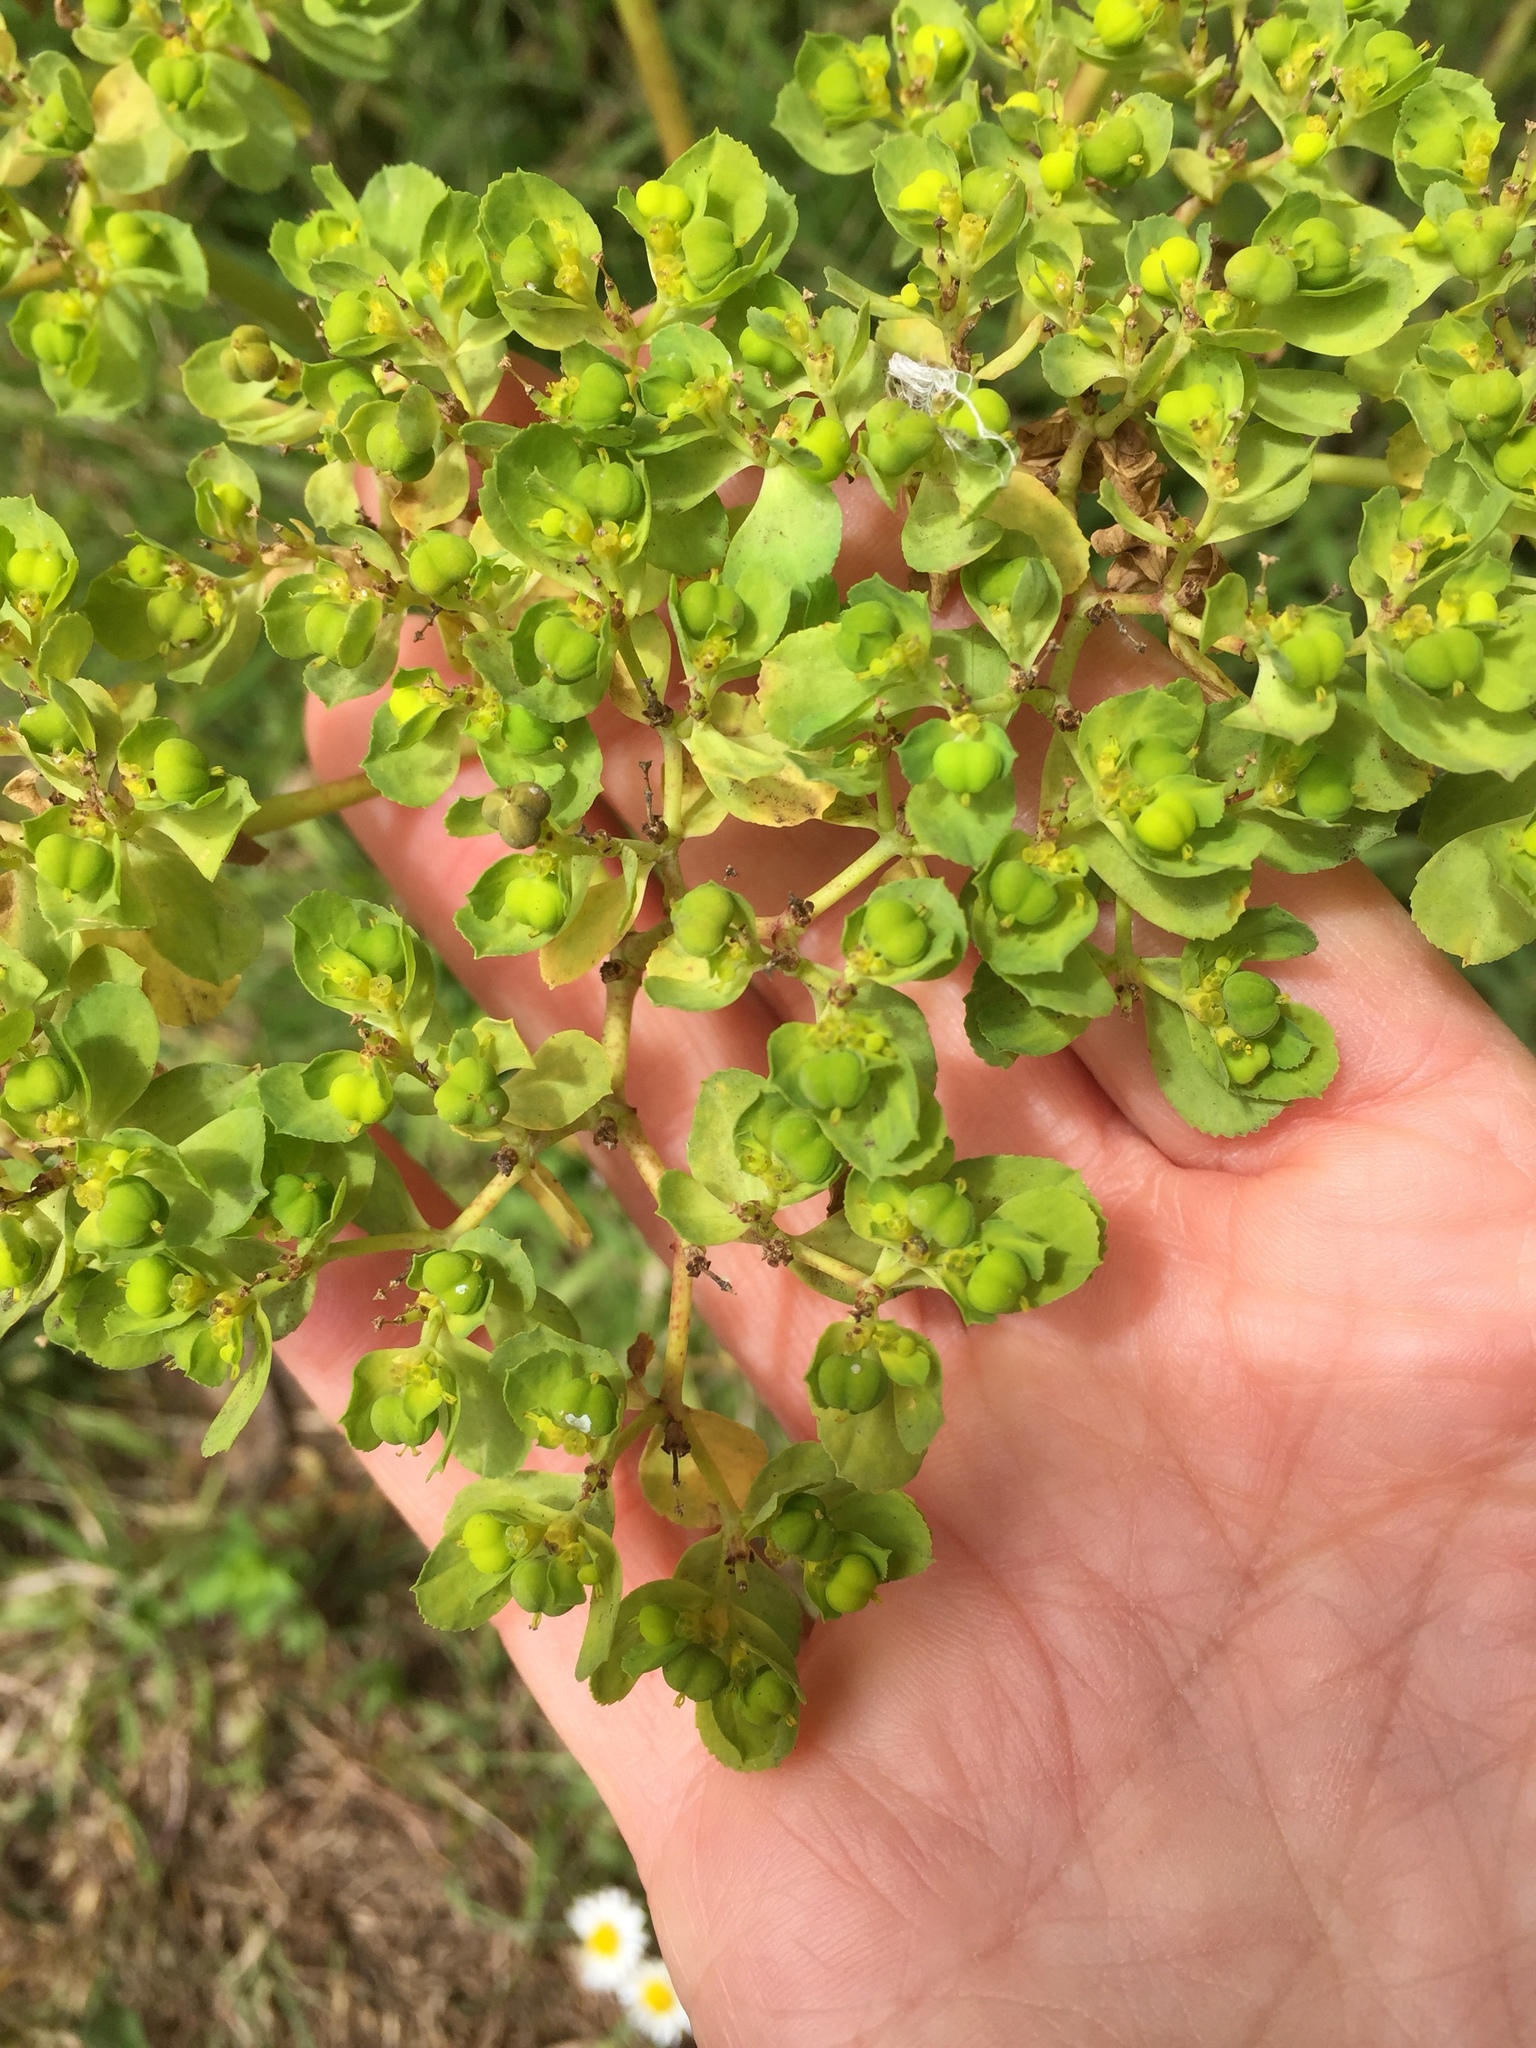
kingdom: Plantae
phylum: Tracheophyta
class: Magnoliopsida
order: Malpighiales
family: Euphorbiaceae
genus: Euphorbia
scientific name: Euphorbia helioscopia
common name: Sun spurge
